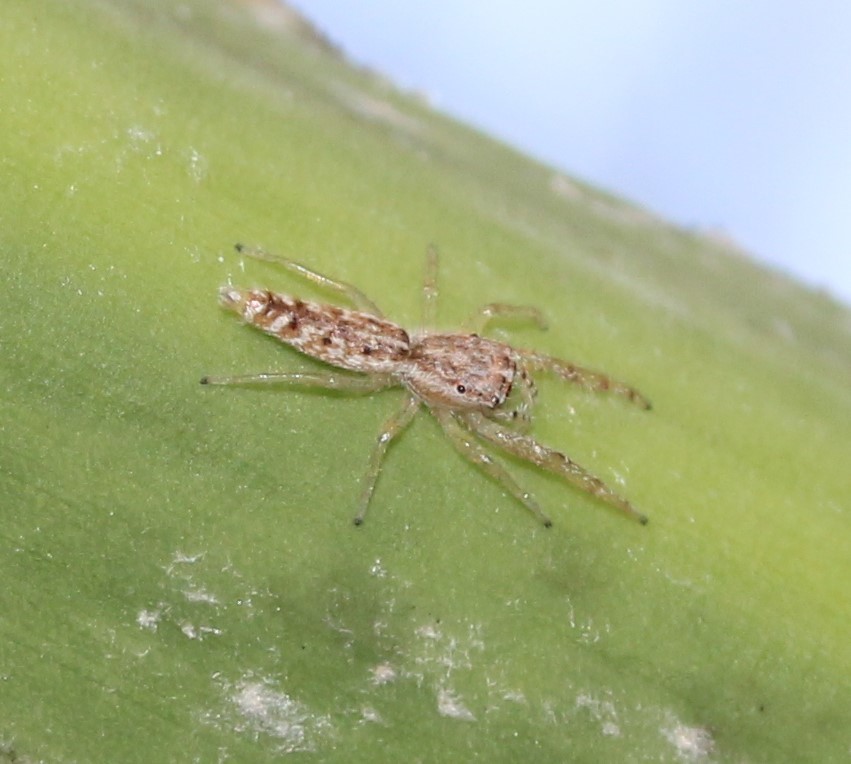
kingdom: Animalia
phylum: Arthropoda
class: Arachnida
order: Araneae
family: Salticidae
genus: Hentzia
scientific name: Hentzia chekika
